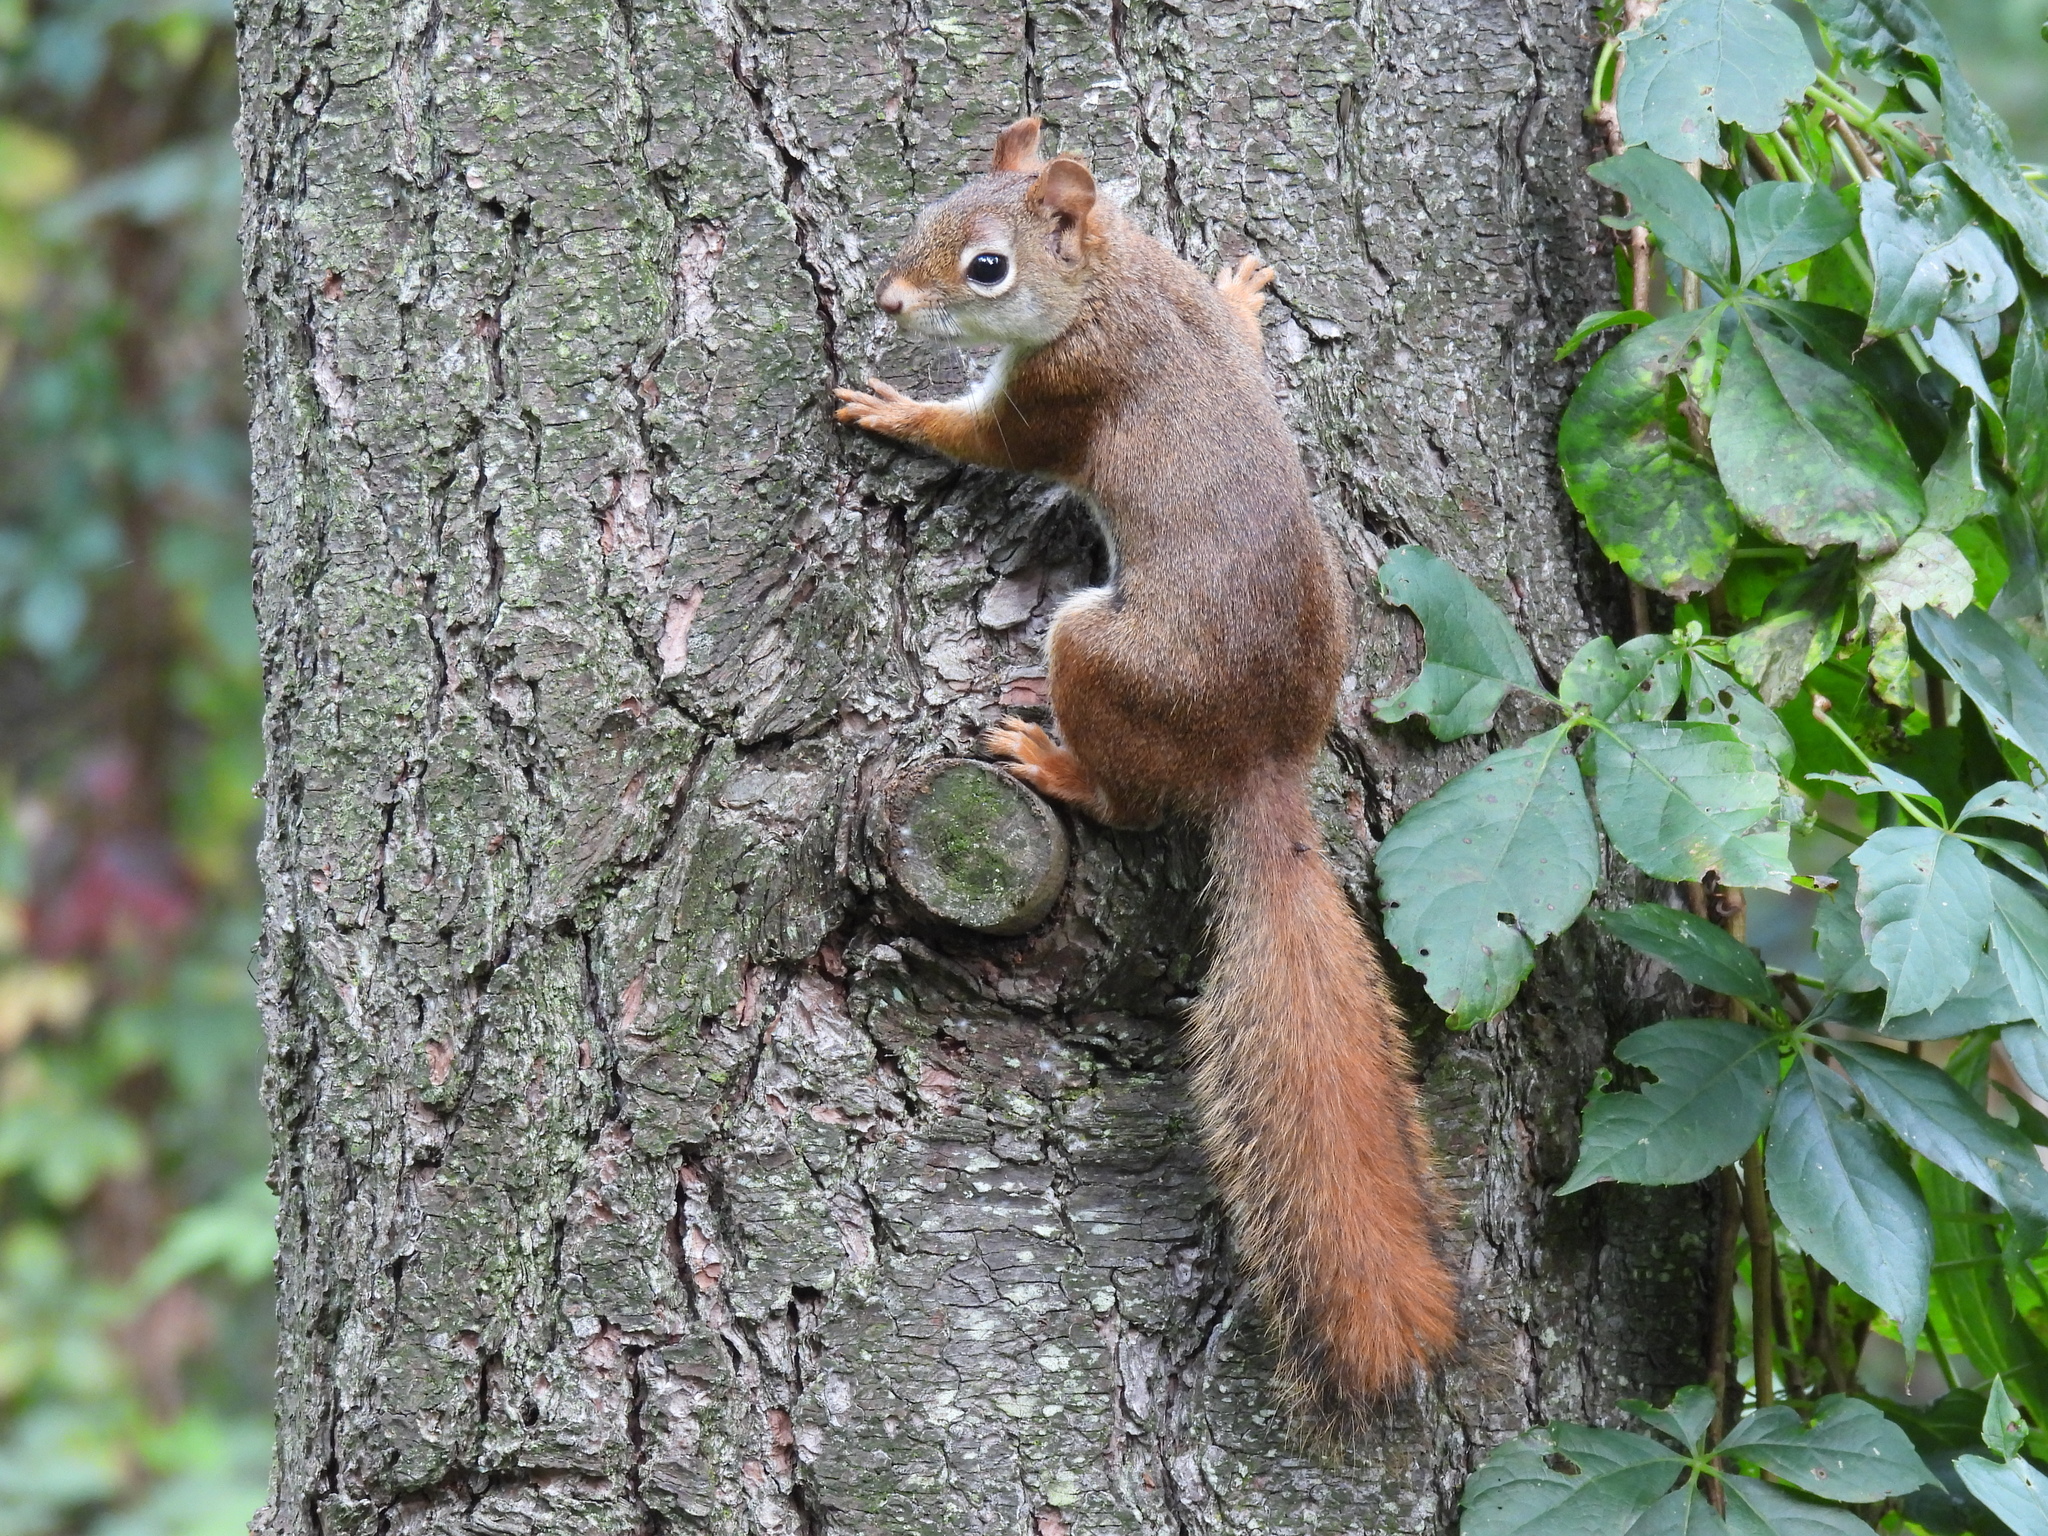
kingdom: Animalia
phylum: Chordata
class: Mammalia
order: Rodentia
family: Sciuridae
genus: Tamiasciurus
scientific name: Tamiasciurus hudsonicus
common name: Red squirrel
